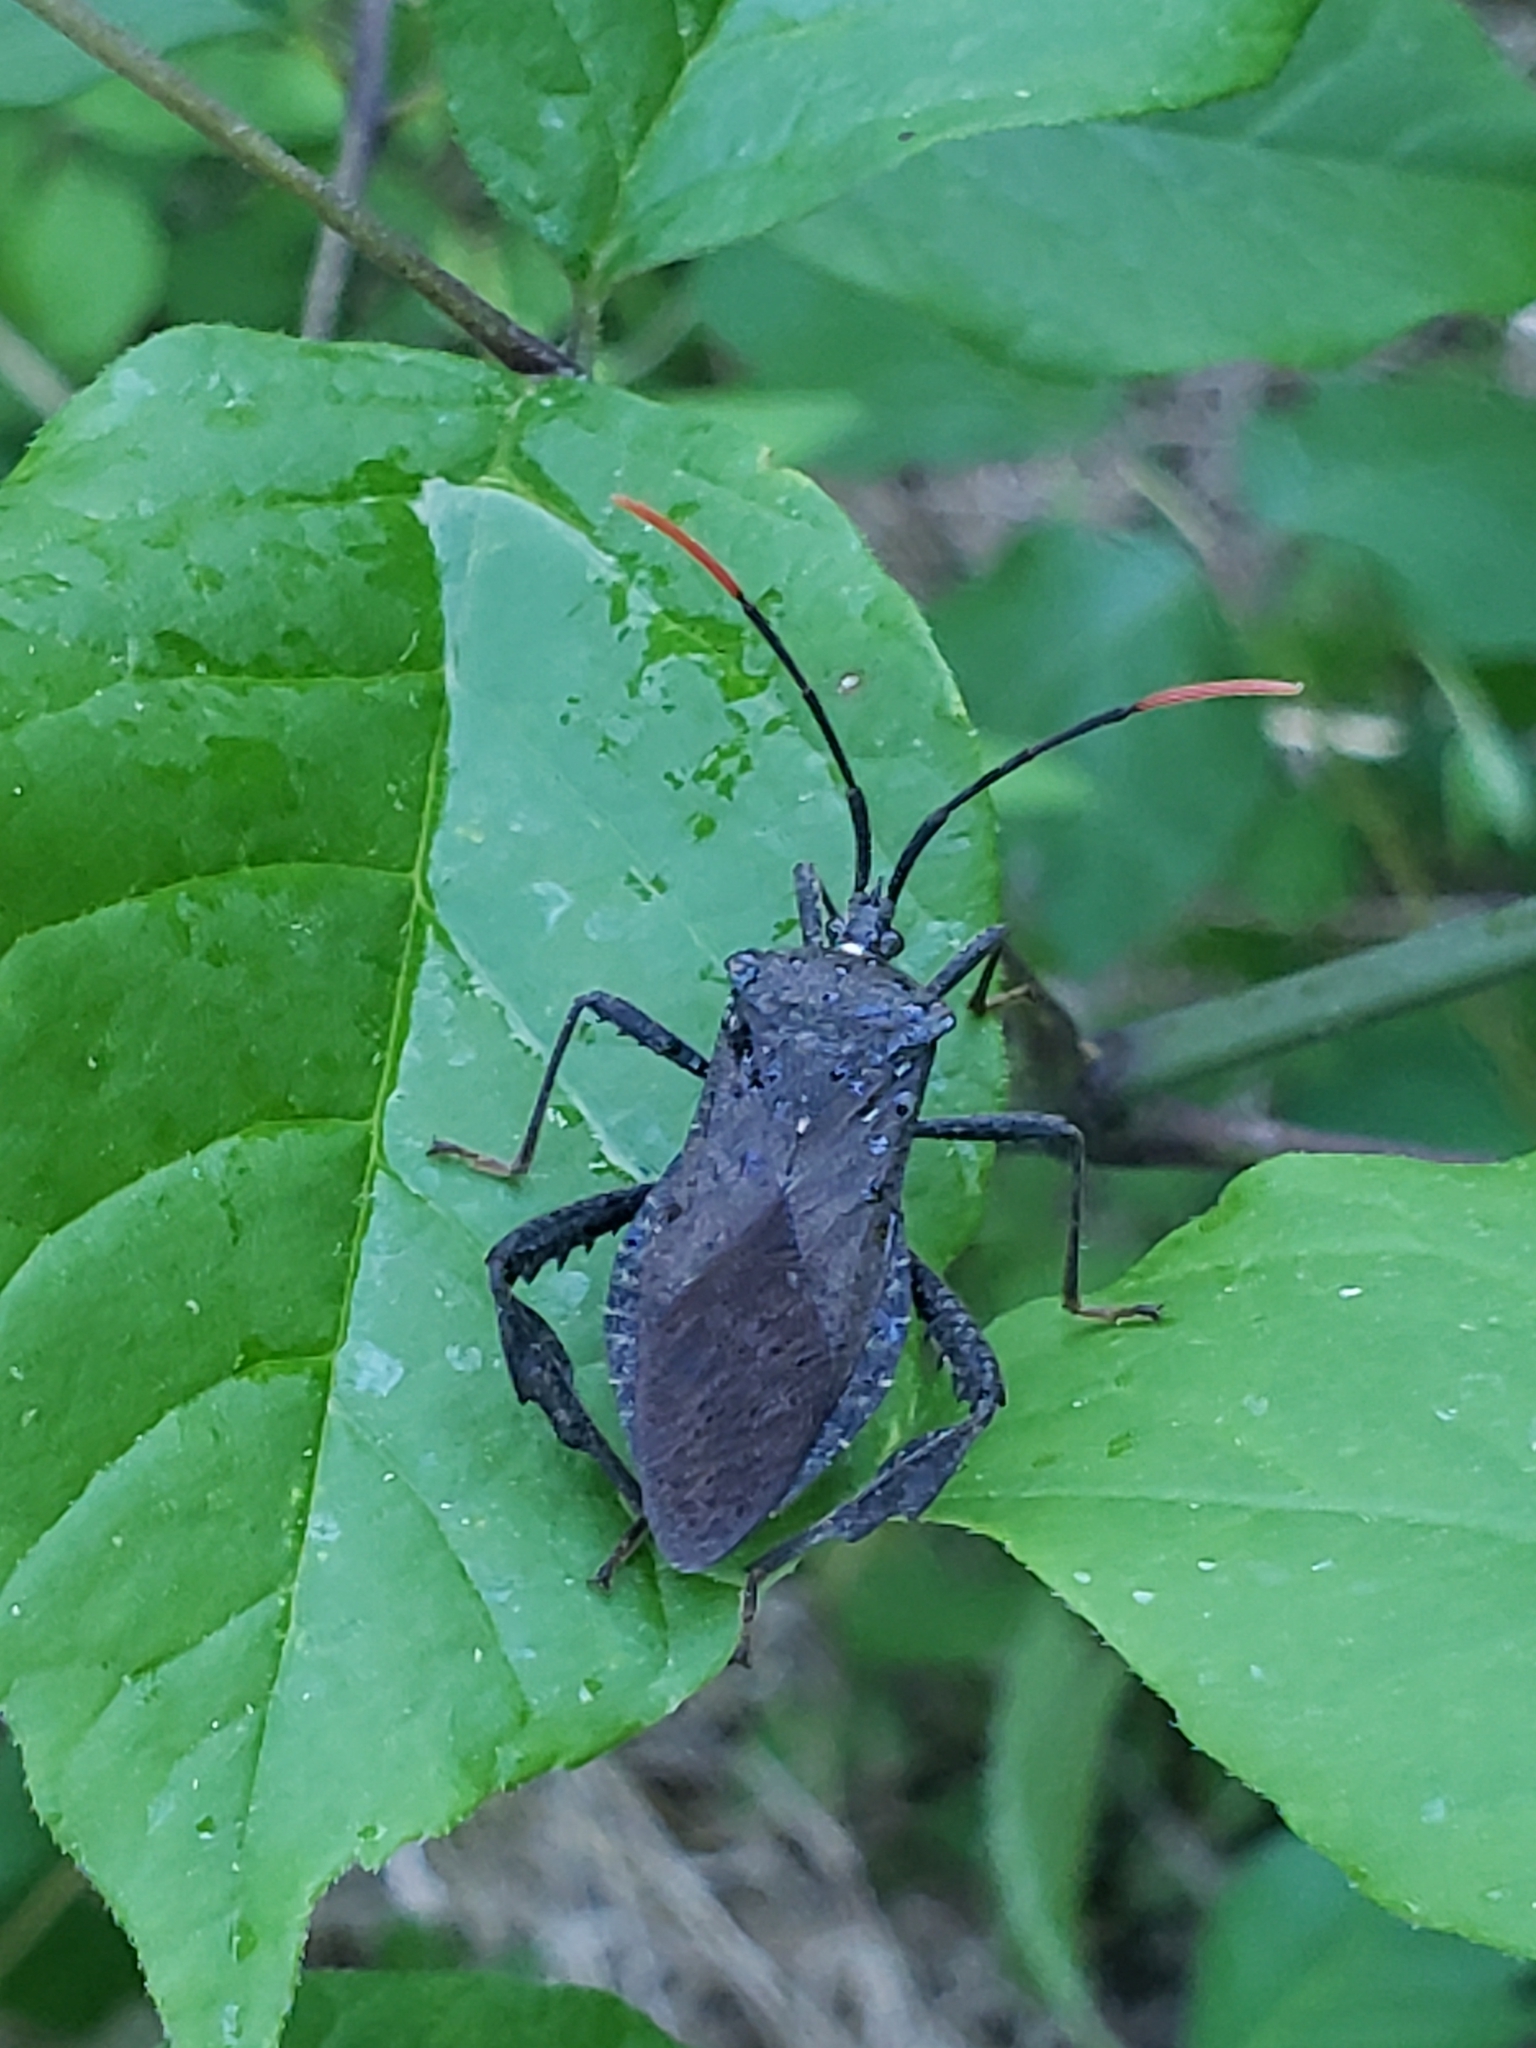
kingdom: Animalia
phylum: Arthropoda
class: Insecta
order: Hemiptera
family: Coreidae
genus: Acanthocephala
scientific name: Acanthocephala terminalis
